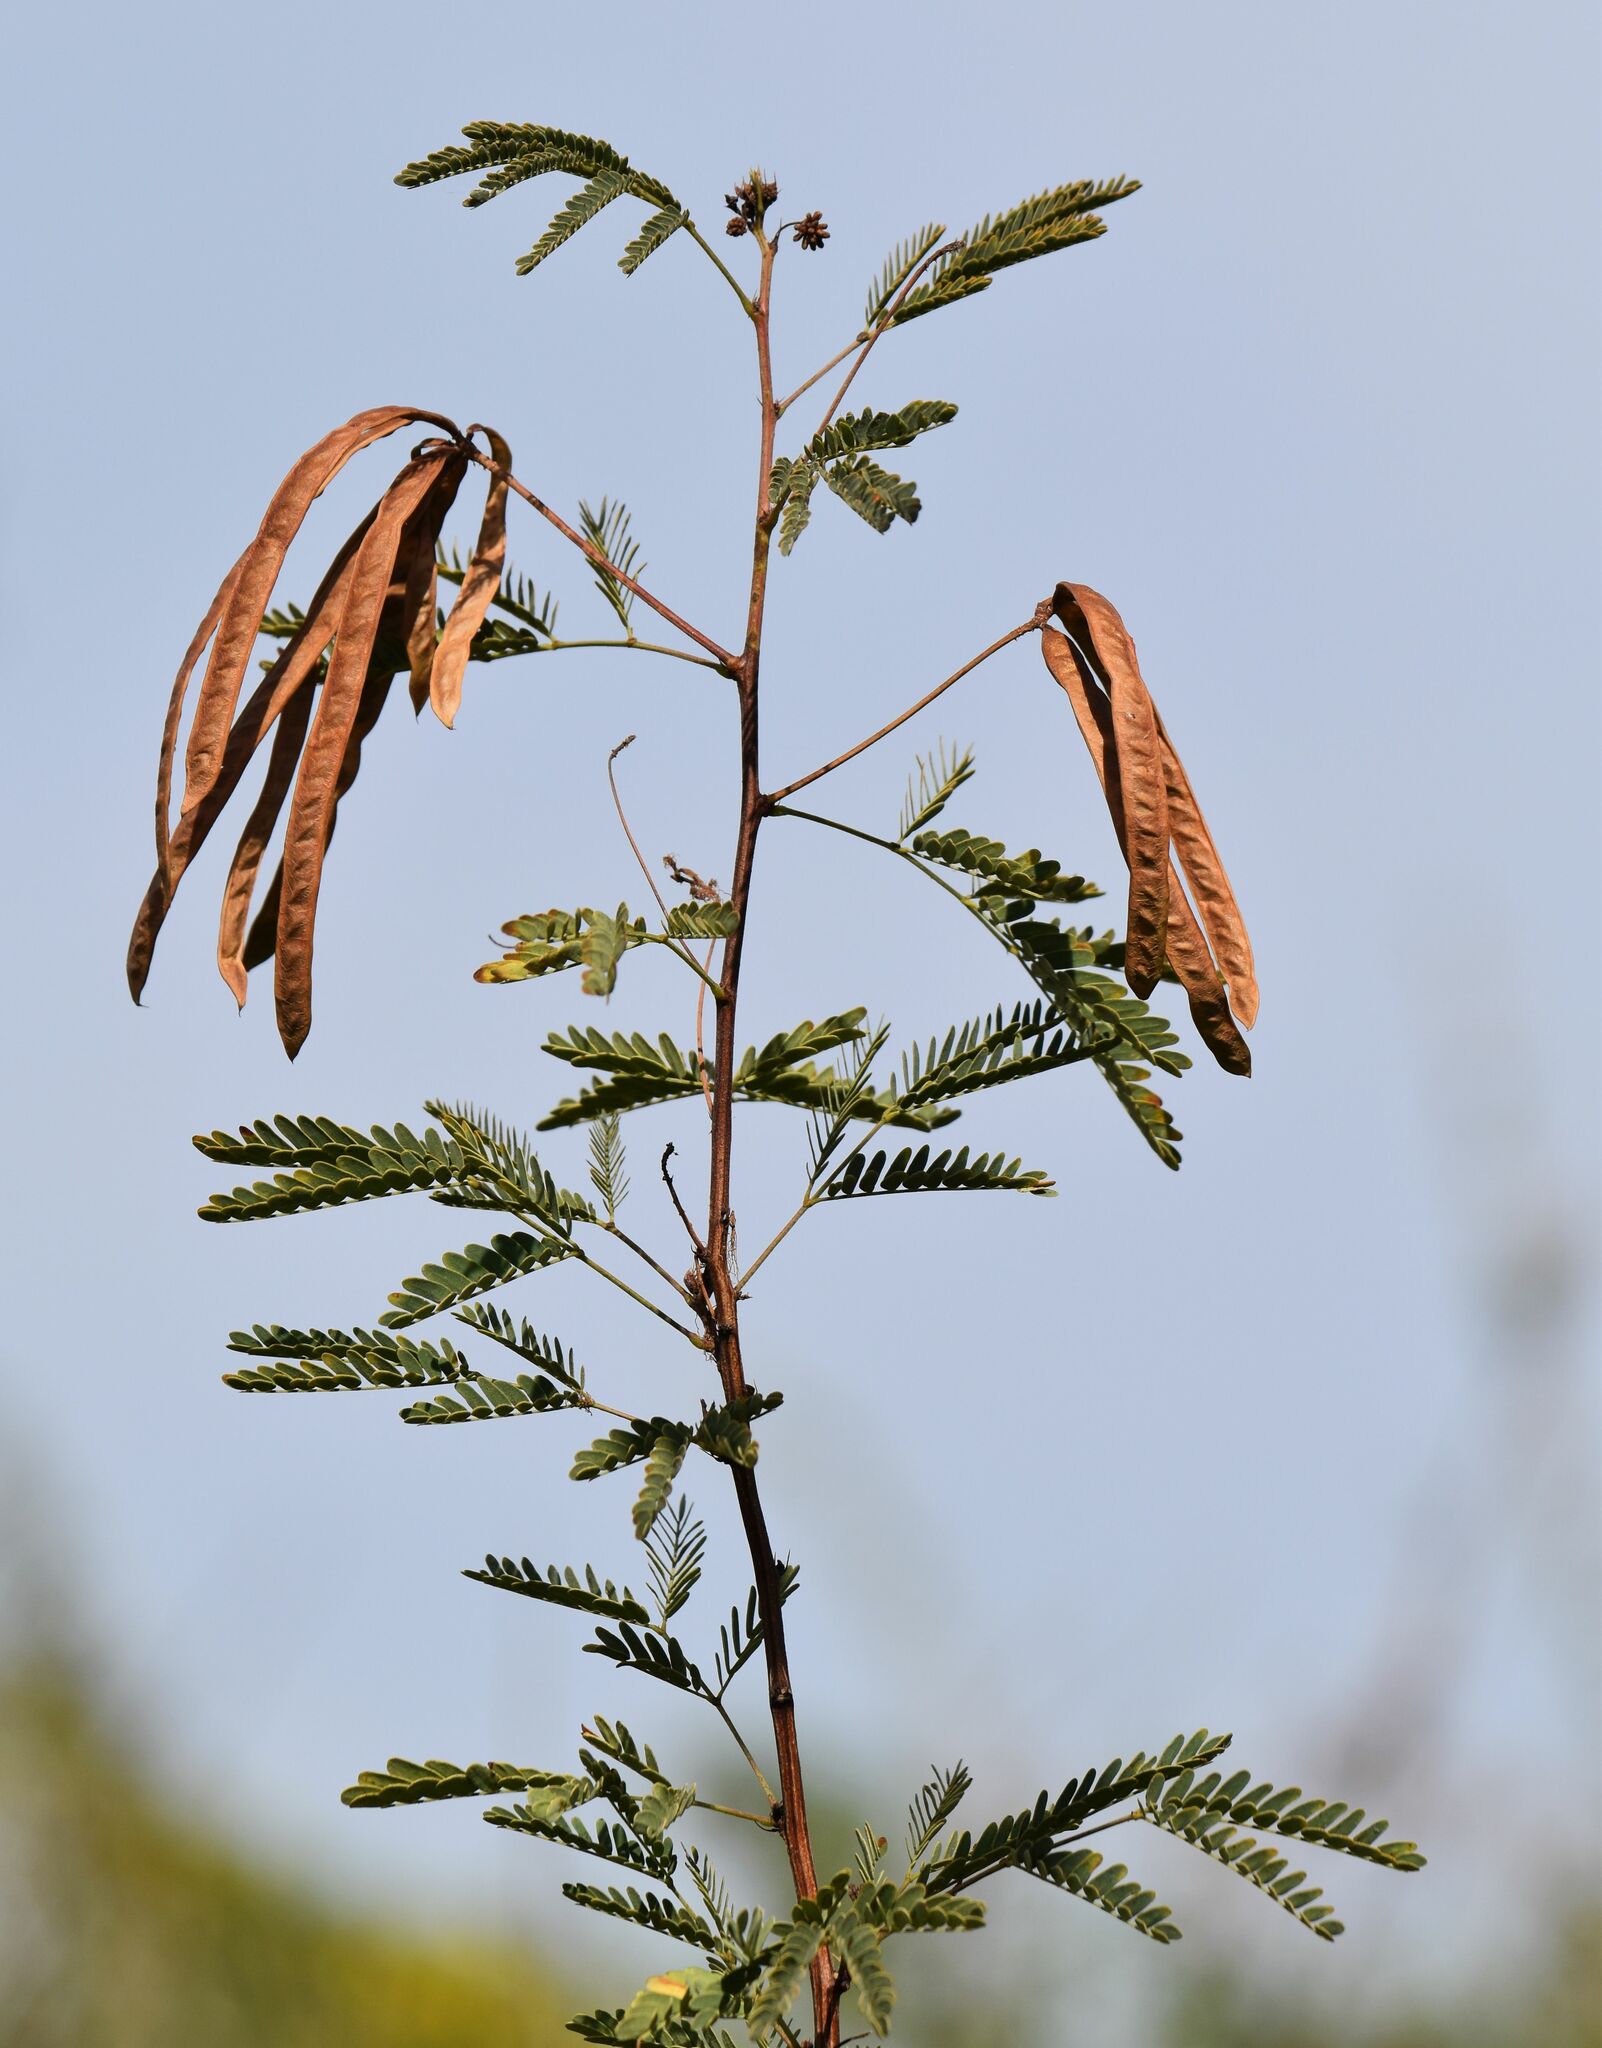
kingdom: Plantae
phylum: Tracheophyta
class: Magnoliopsida
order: Fabales
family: Fabaceae
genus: Desmanthus
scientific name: Desmanthus fruticosus
